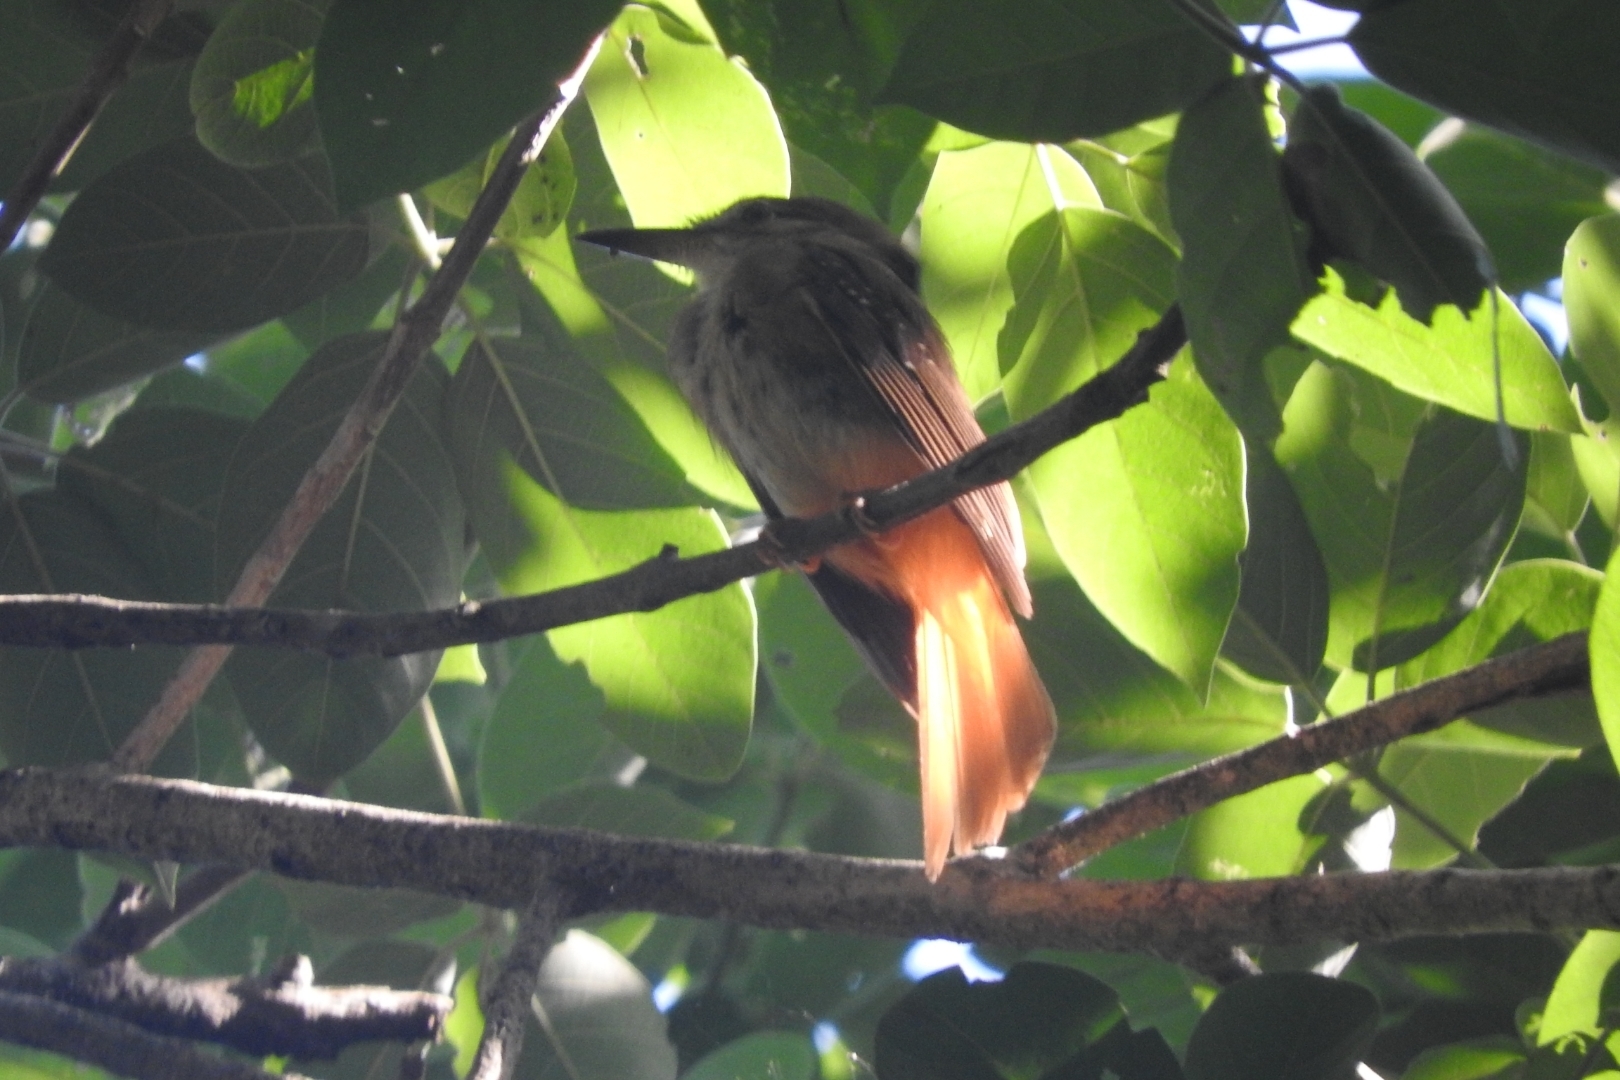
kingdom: Animalia
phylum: Chordata
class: Aves
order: Passeriformes
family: Tyrannidae
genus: Onychorhynchus
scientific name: Onychorhynchus coronatus
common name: Royal flycatcher
